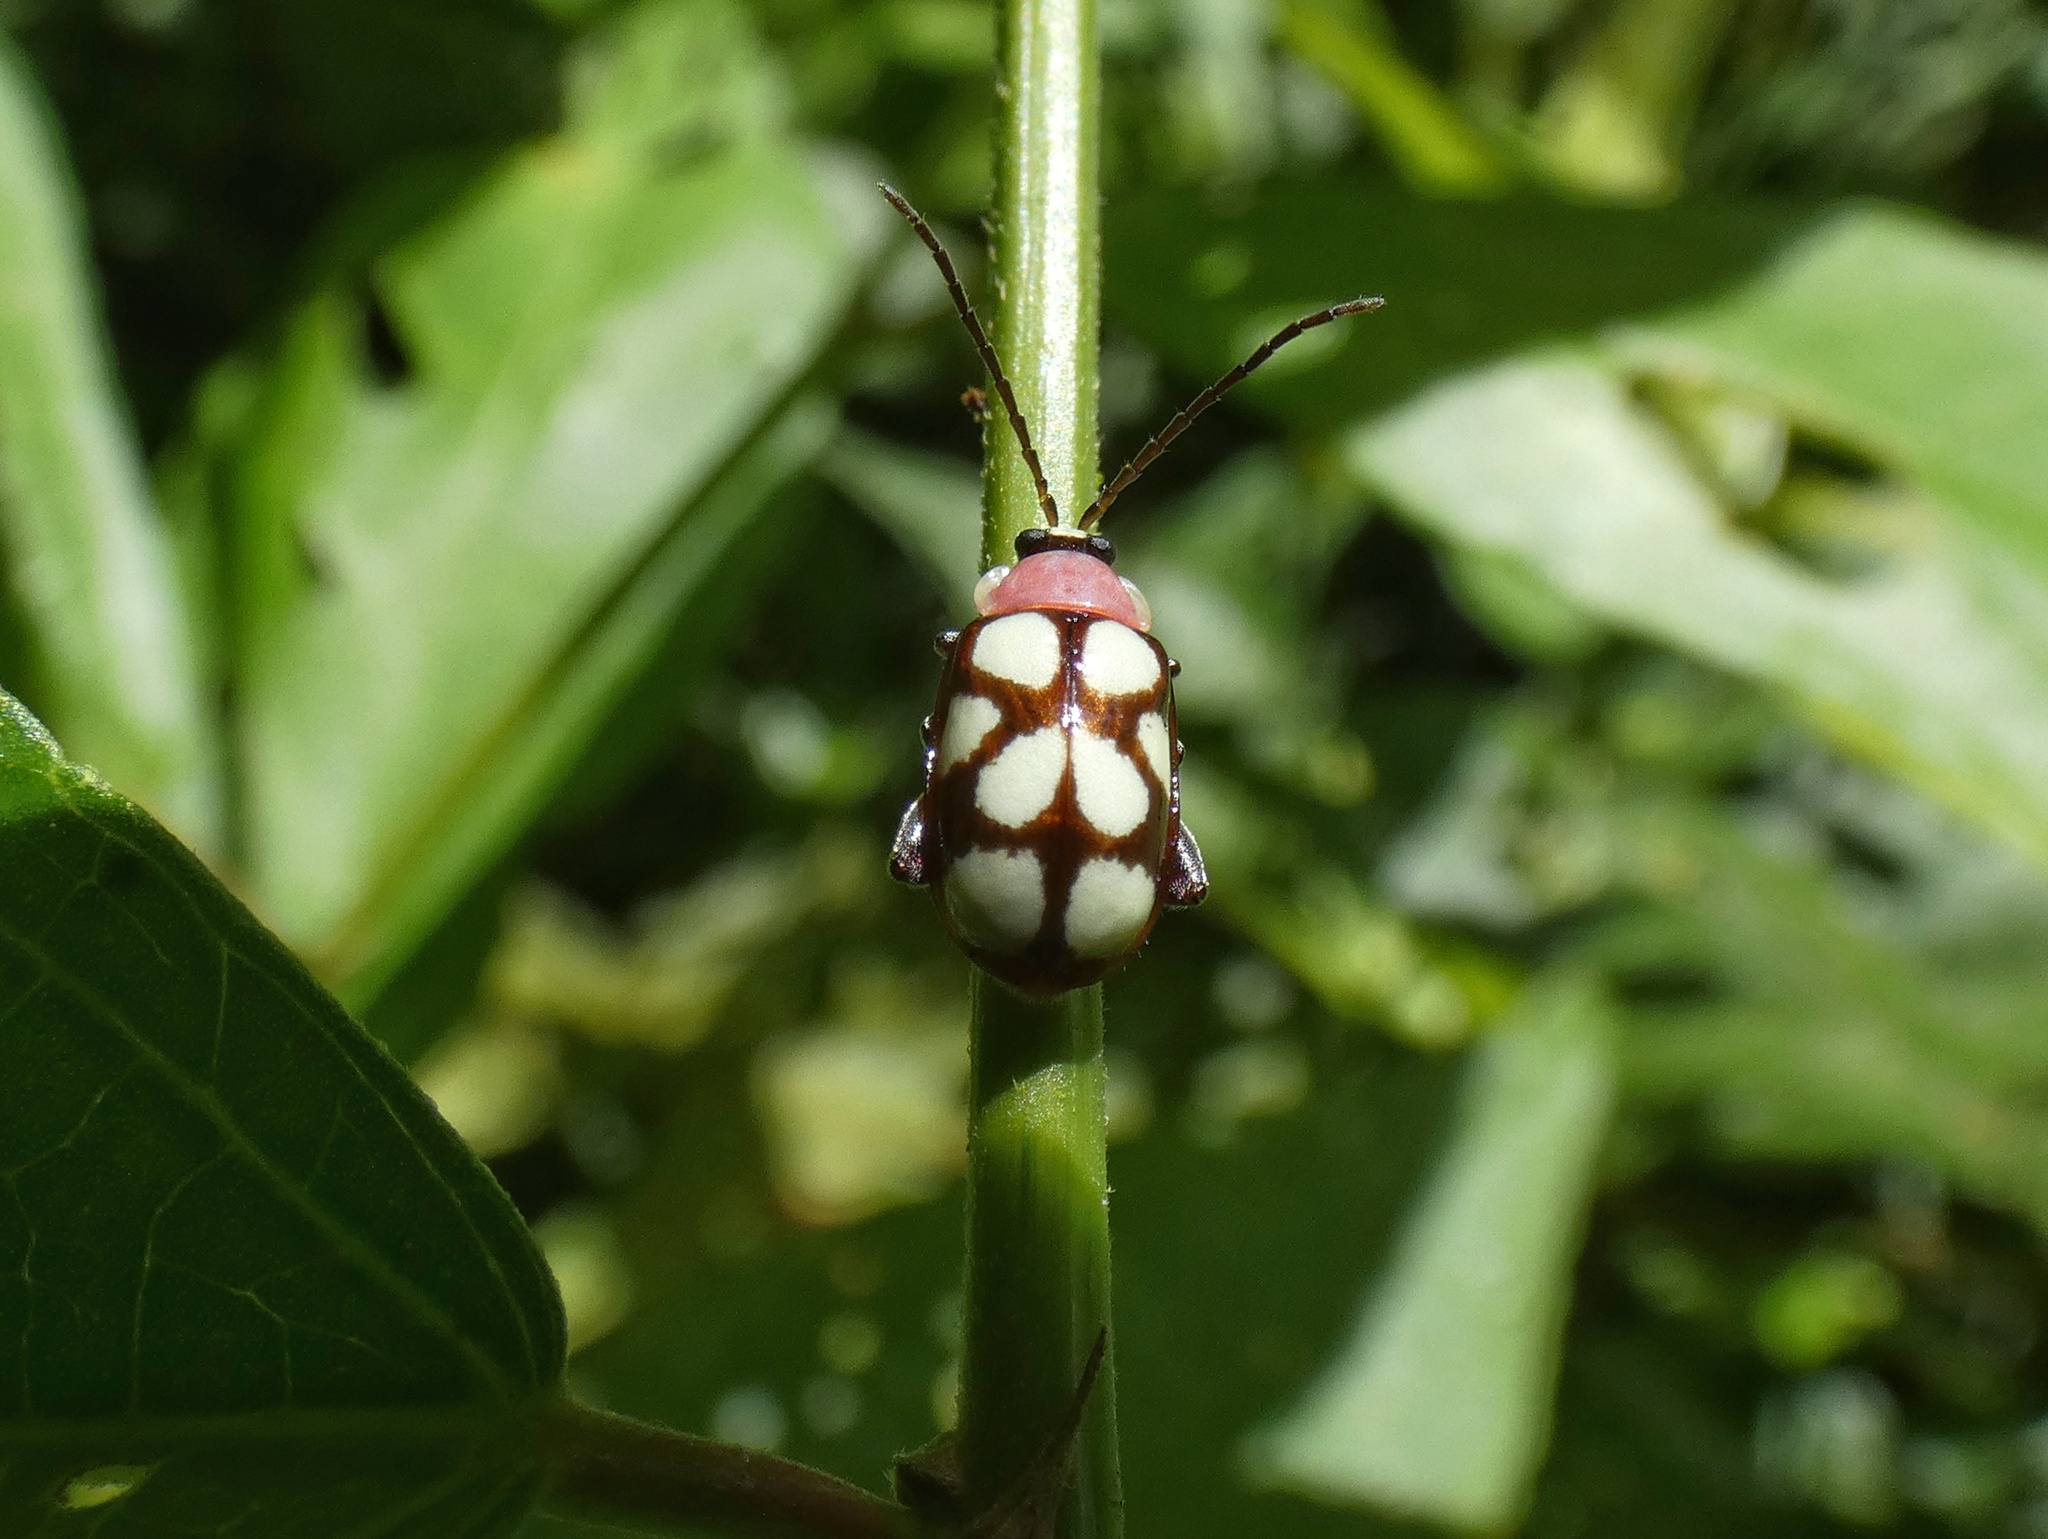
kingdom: Animalia
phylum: Arthropoda
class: Insecta
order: Coleoptera
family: Chrysomelidae
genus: Omophoita
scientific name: Omophoita aequinoctialis
